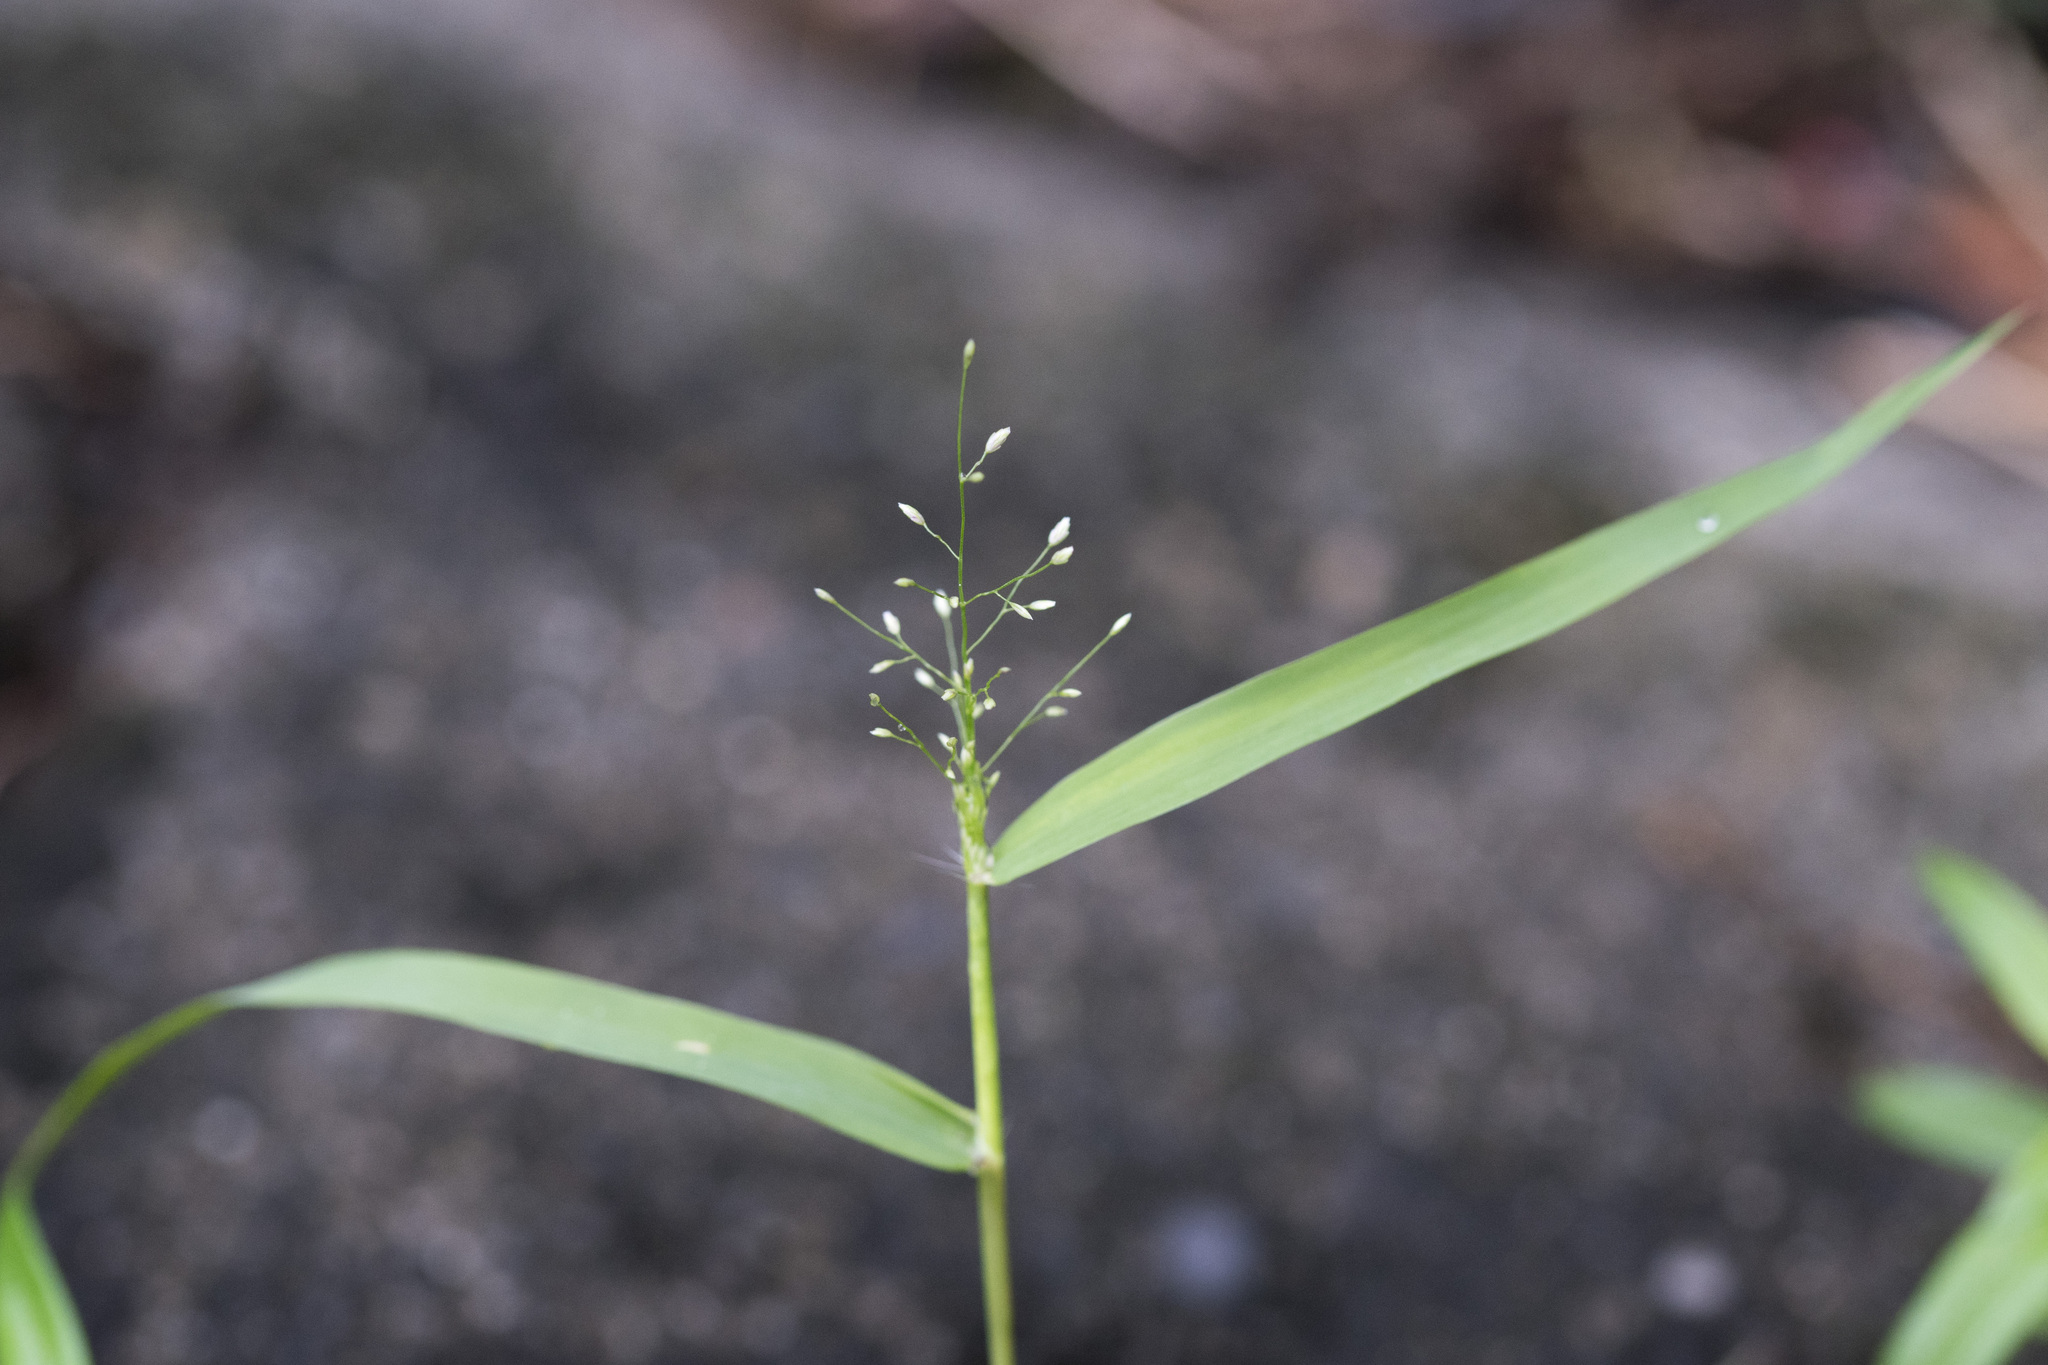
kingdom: Plantae
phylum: Tracheophyta
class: Liliopsida
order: Poales
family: Poaceae
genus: Eragrostis
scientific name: Eragrostis tenella
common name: Japanese lovegrass
